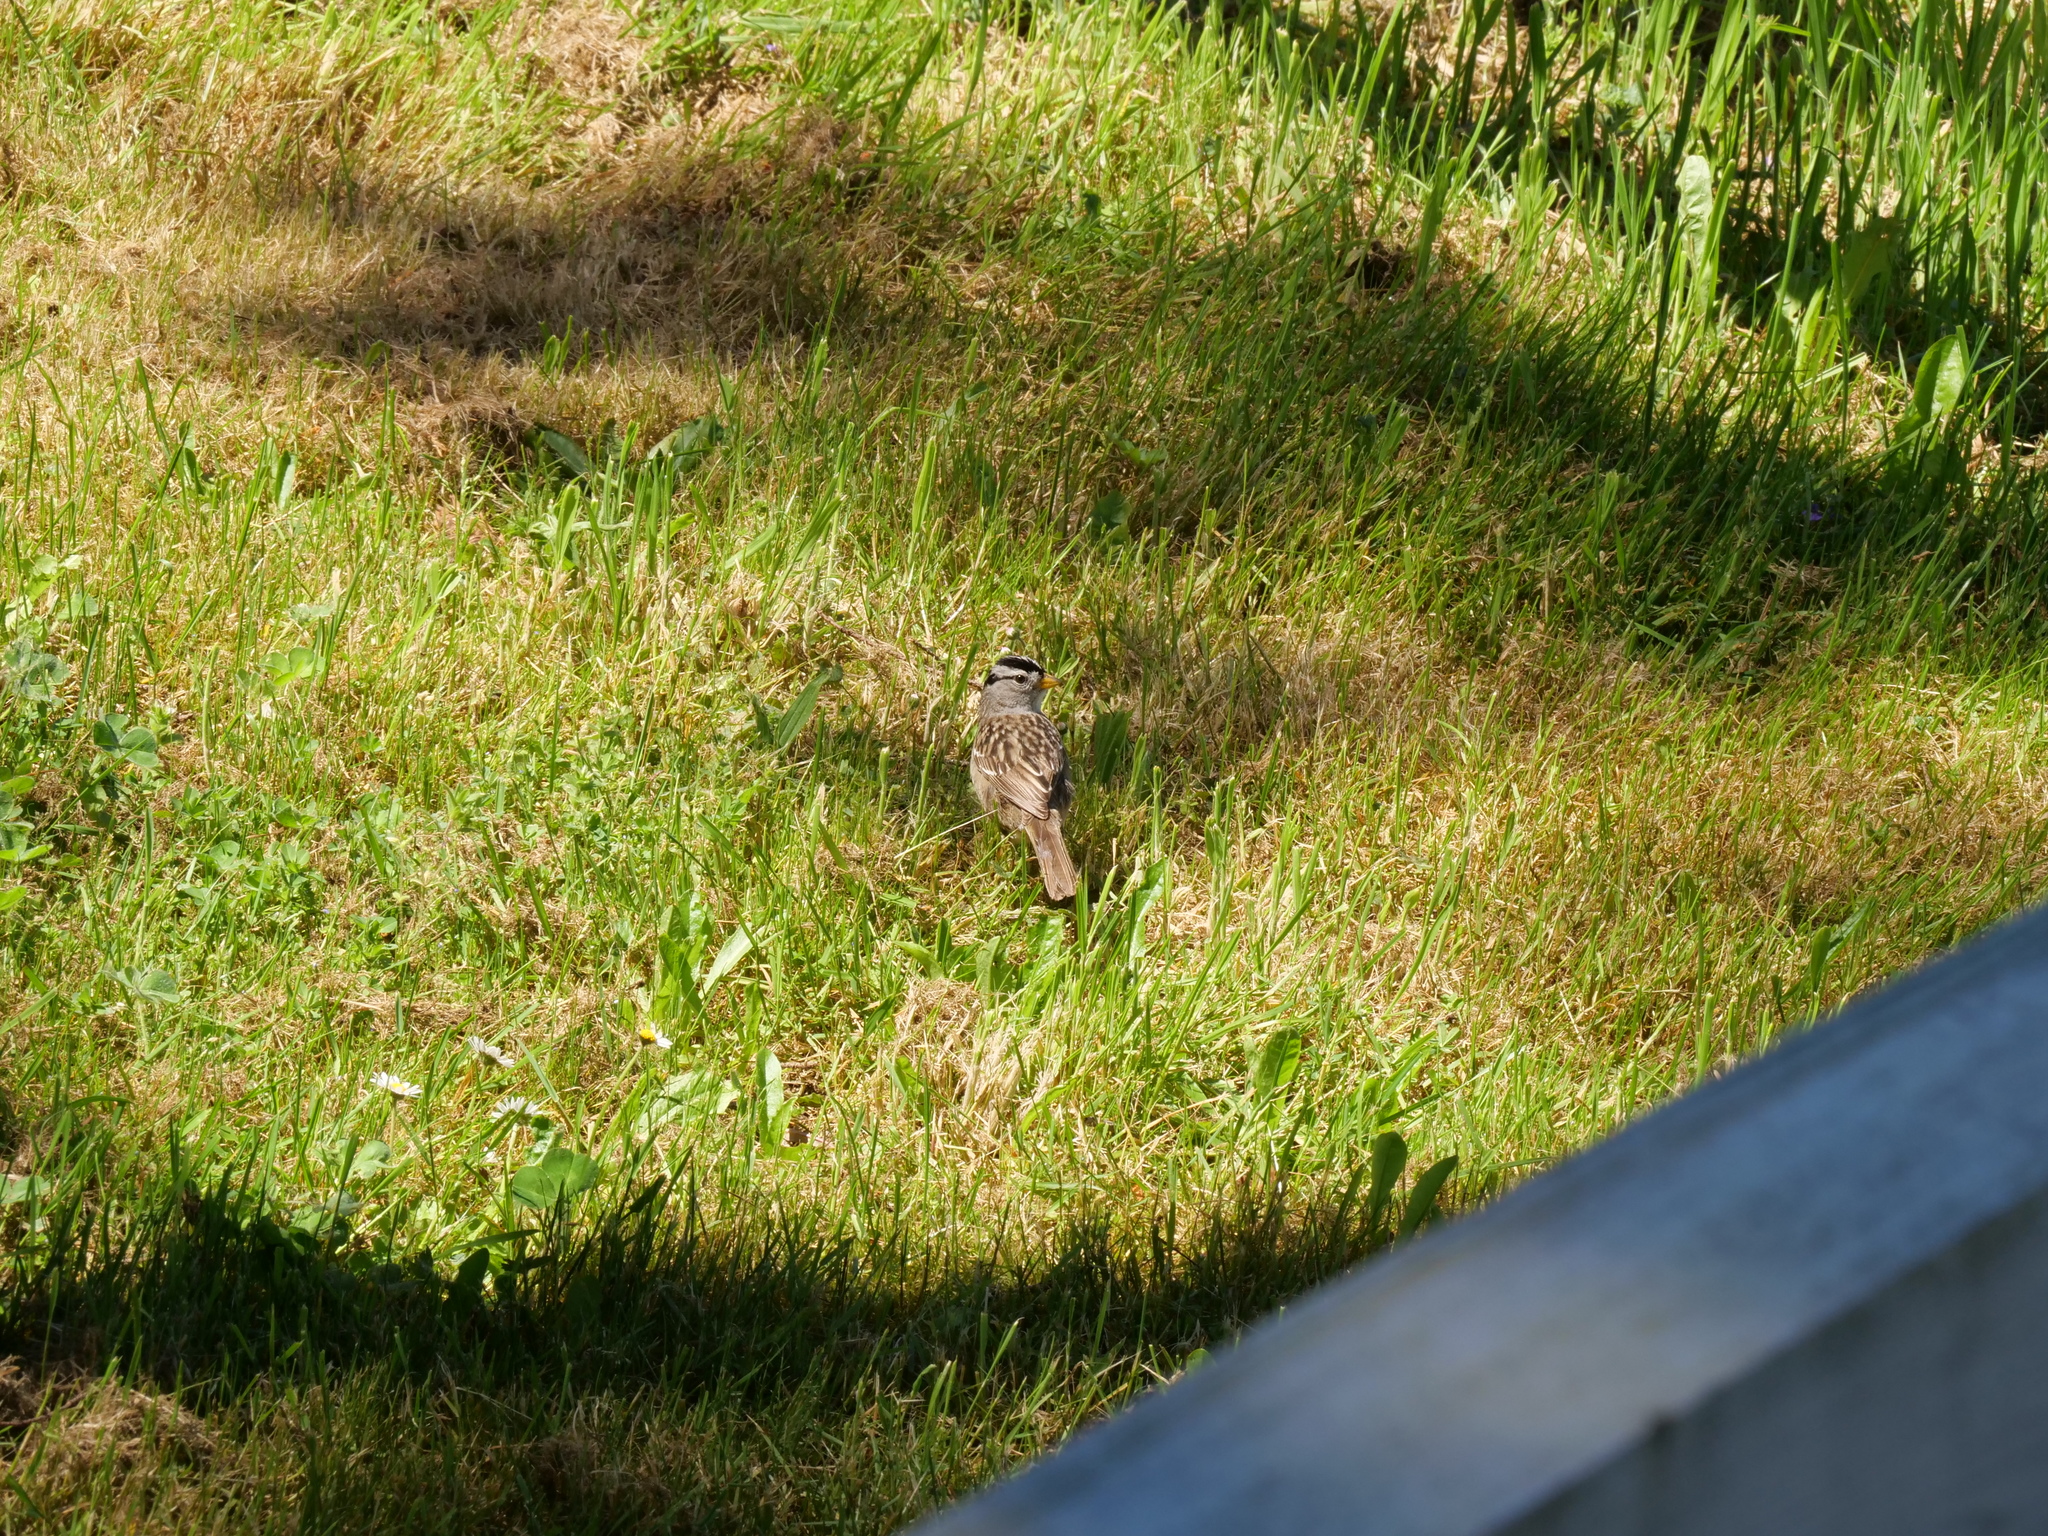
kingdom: Animalia
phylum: Chordata
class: Aves
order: Passeriformes
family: Passerellidae
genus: Zonotrichia
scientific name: Zonotrichia leucophrys
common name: White-crowned sparrow
